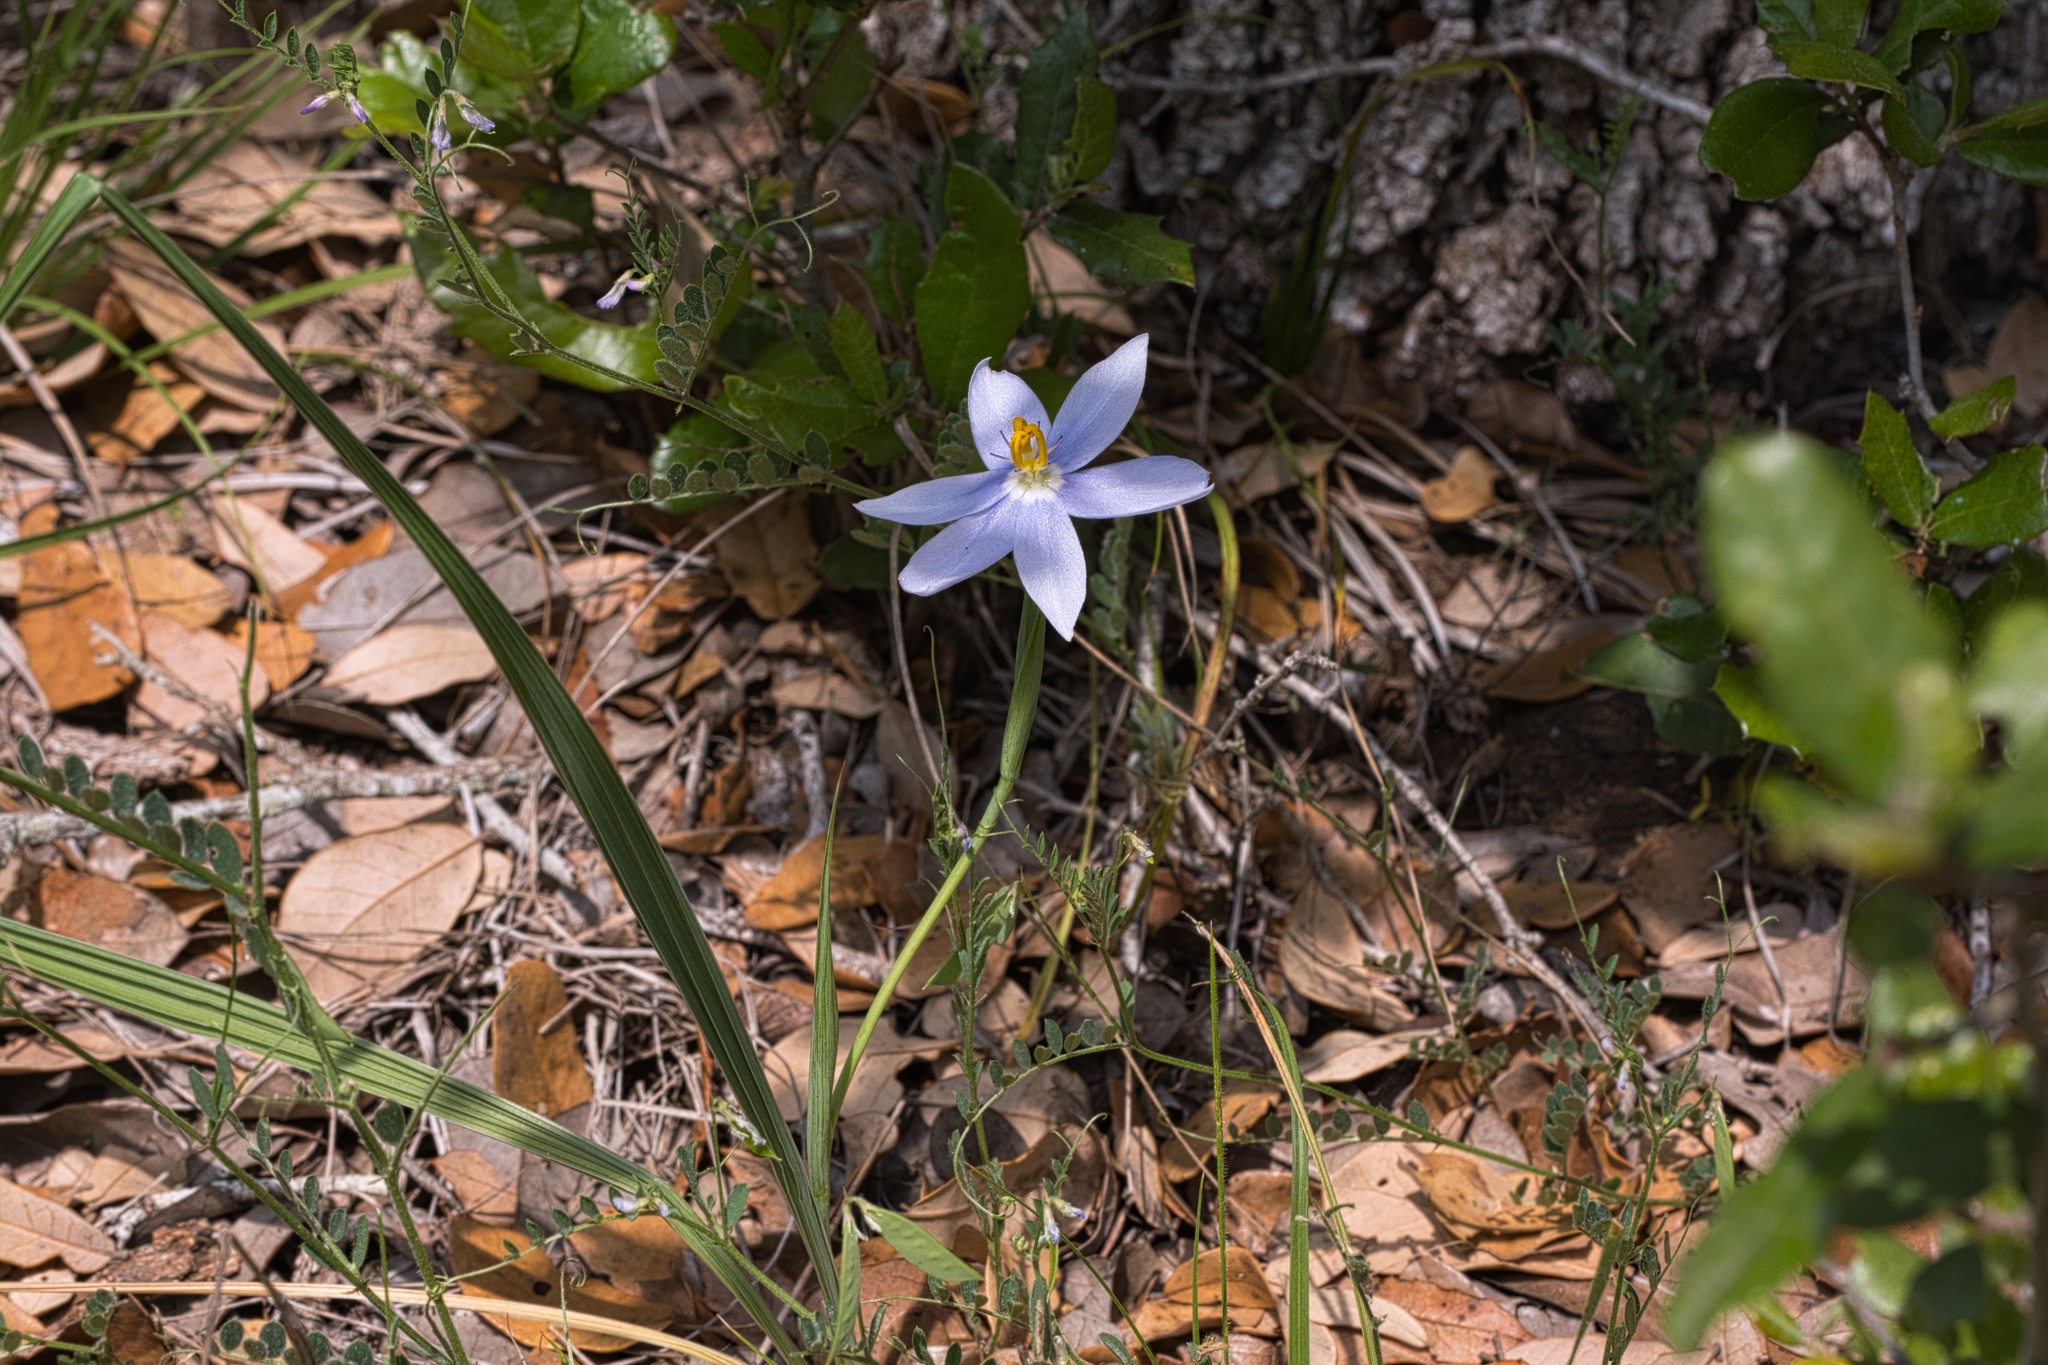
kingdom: Plantae
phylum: Tracheophyta
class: Liliopsida
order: Asparagales
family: Iridaceae
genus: Nemastylis
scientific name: Nemastylis geminiflora
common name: Prairie celestial
